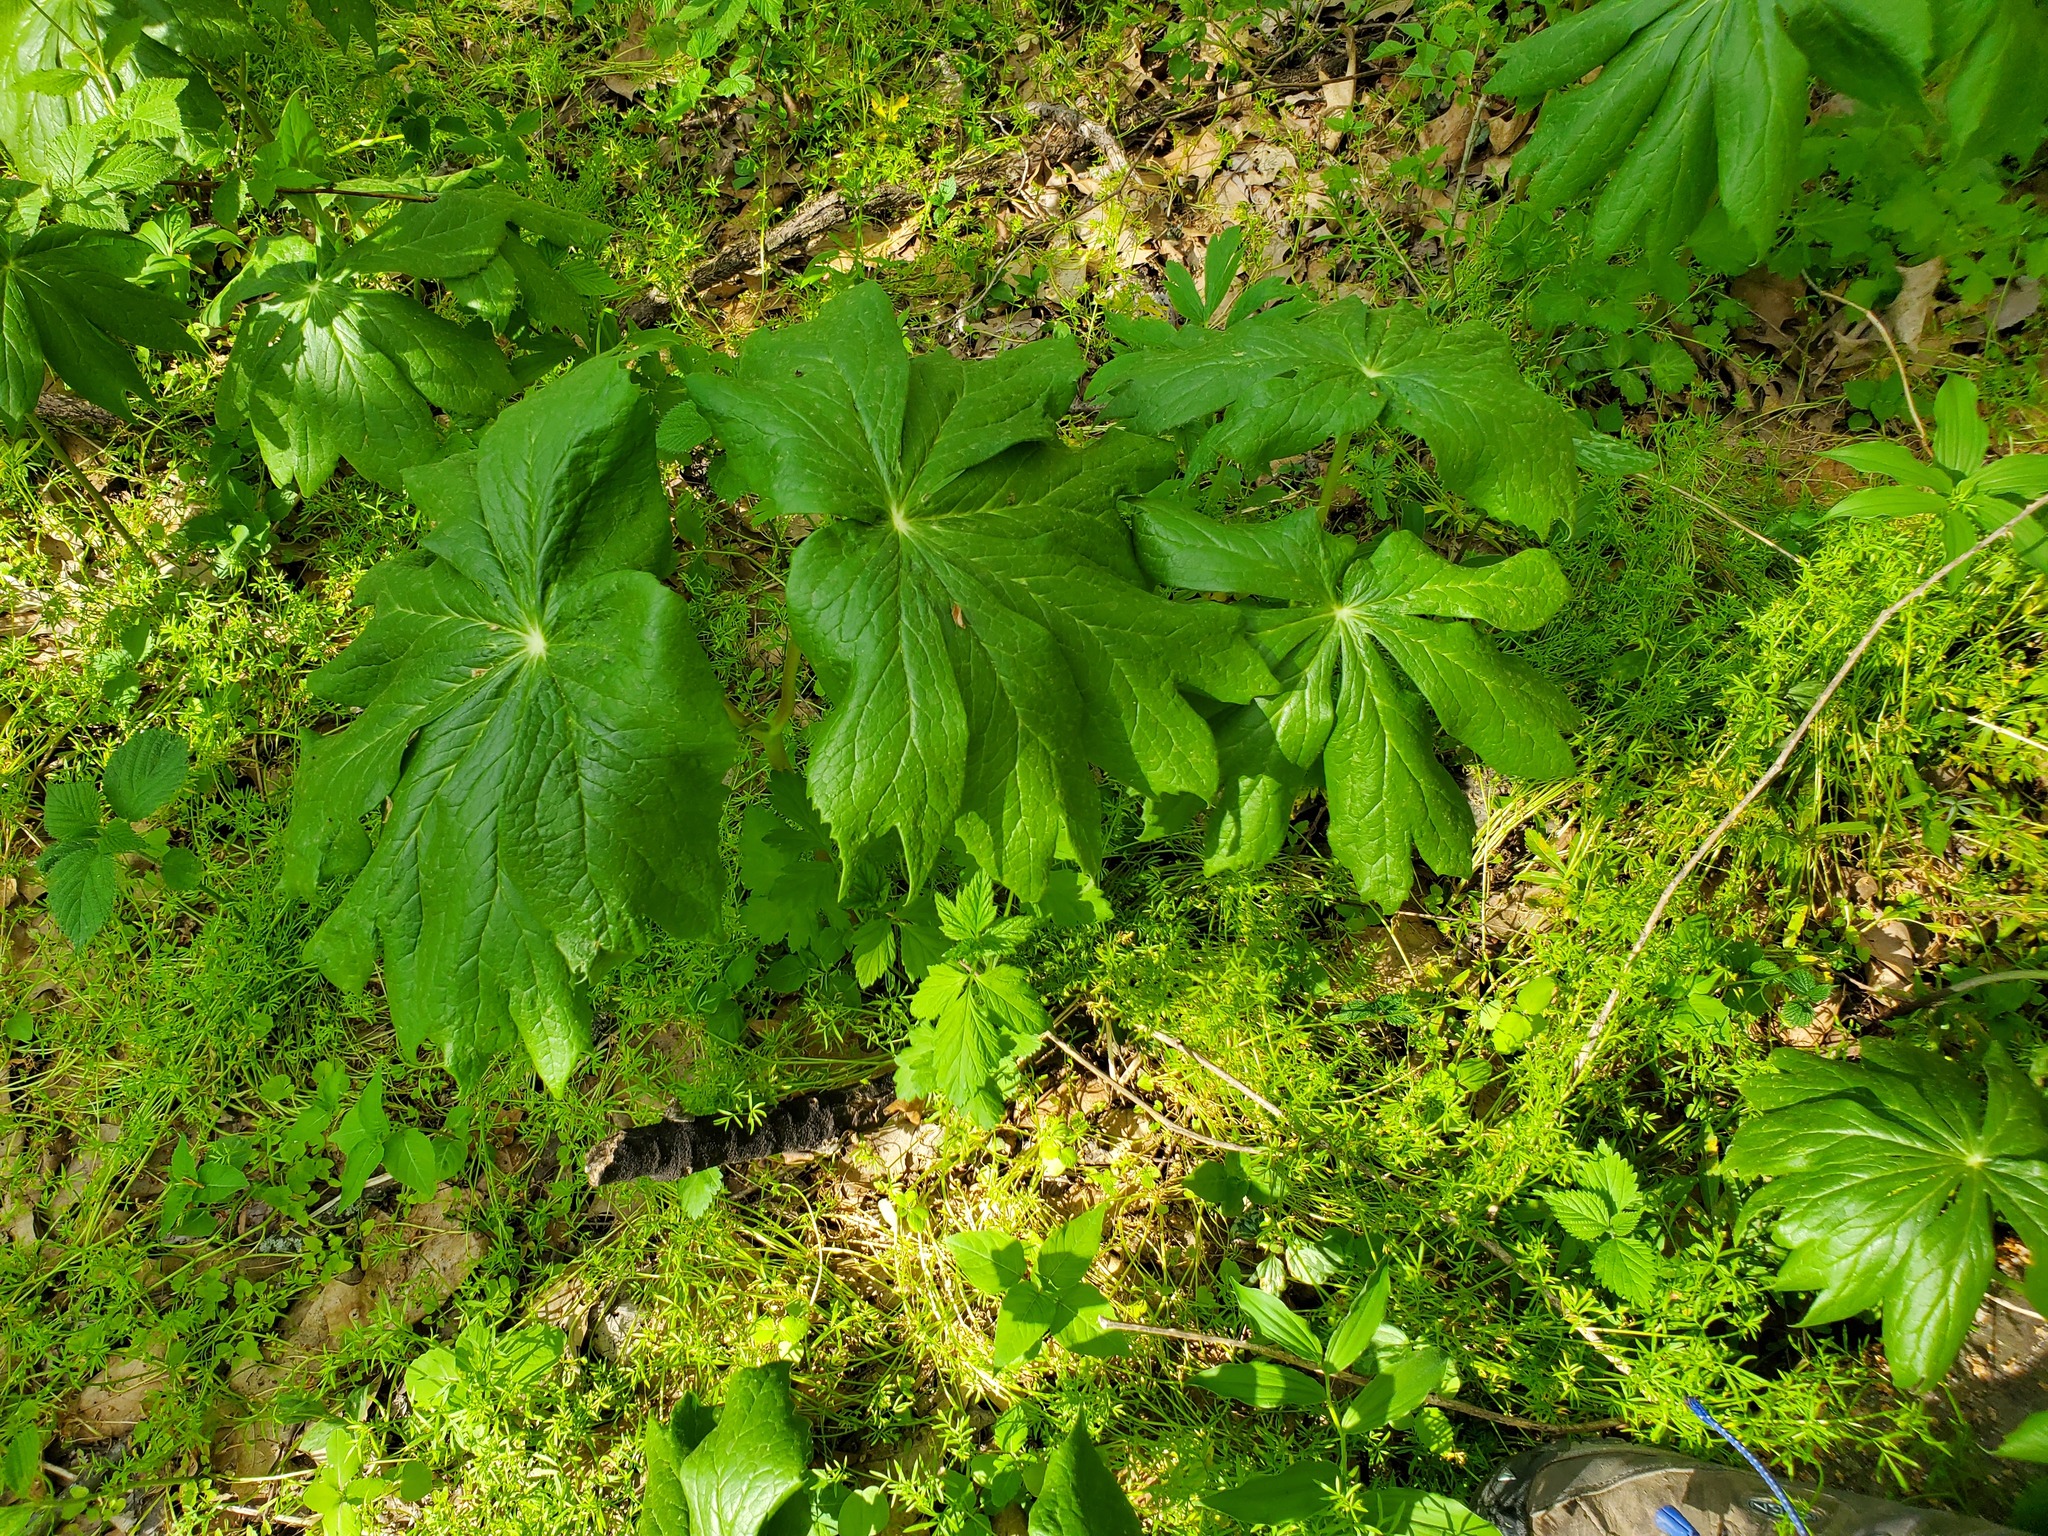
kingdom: Plantae
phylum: Tracheophyta
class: Magnoliopsida
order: Ranunculales
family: Berberidaceae
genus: Podophyllum
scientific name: Podophyllum peltatum
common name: Wild mandrake
